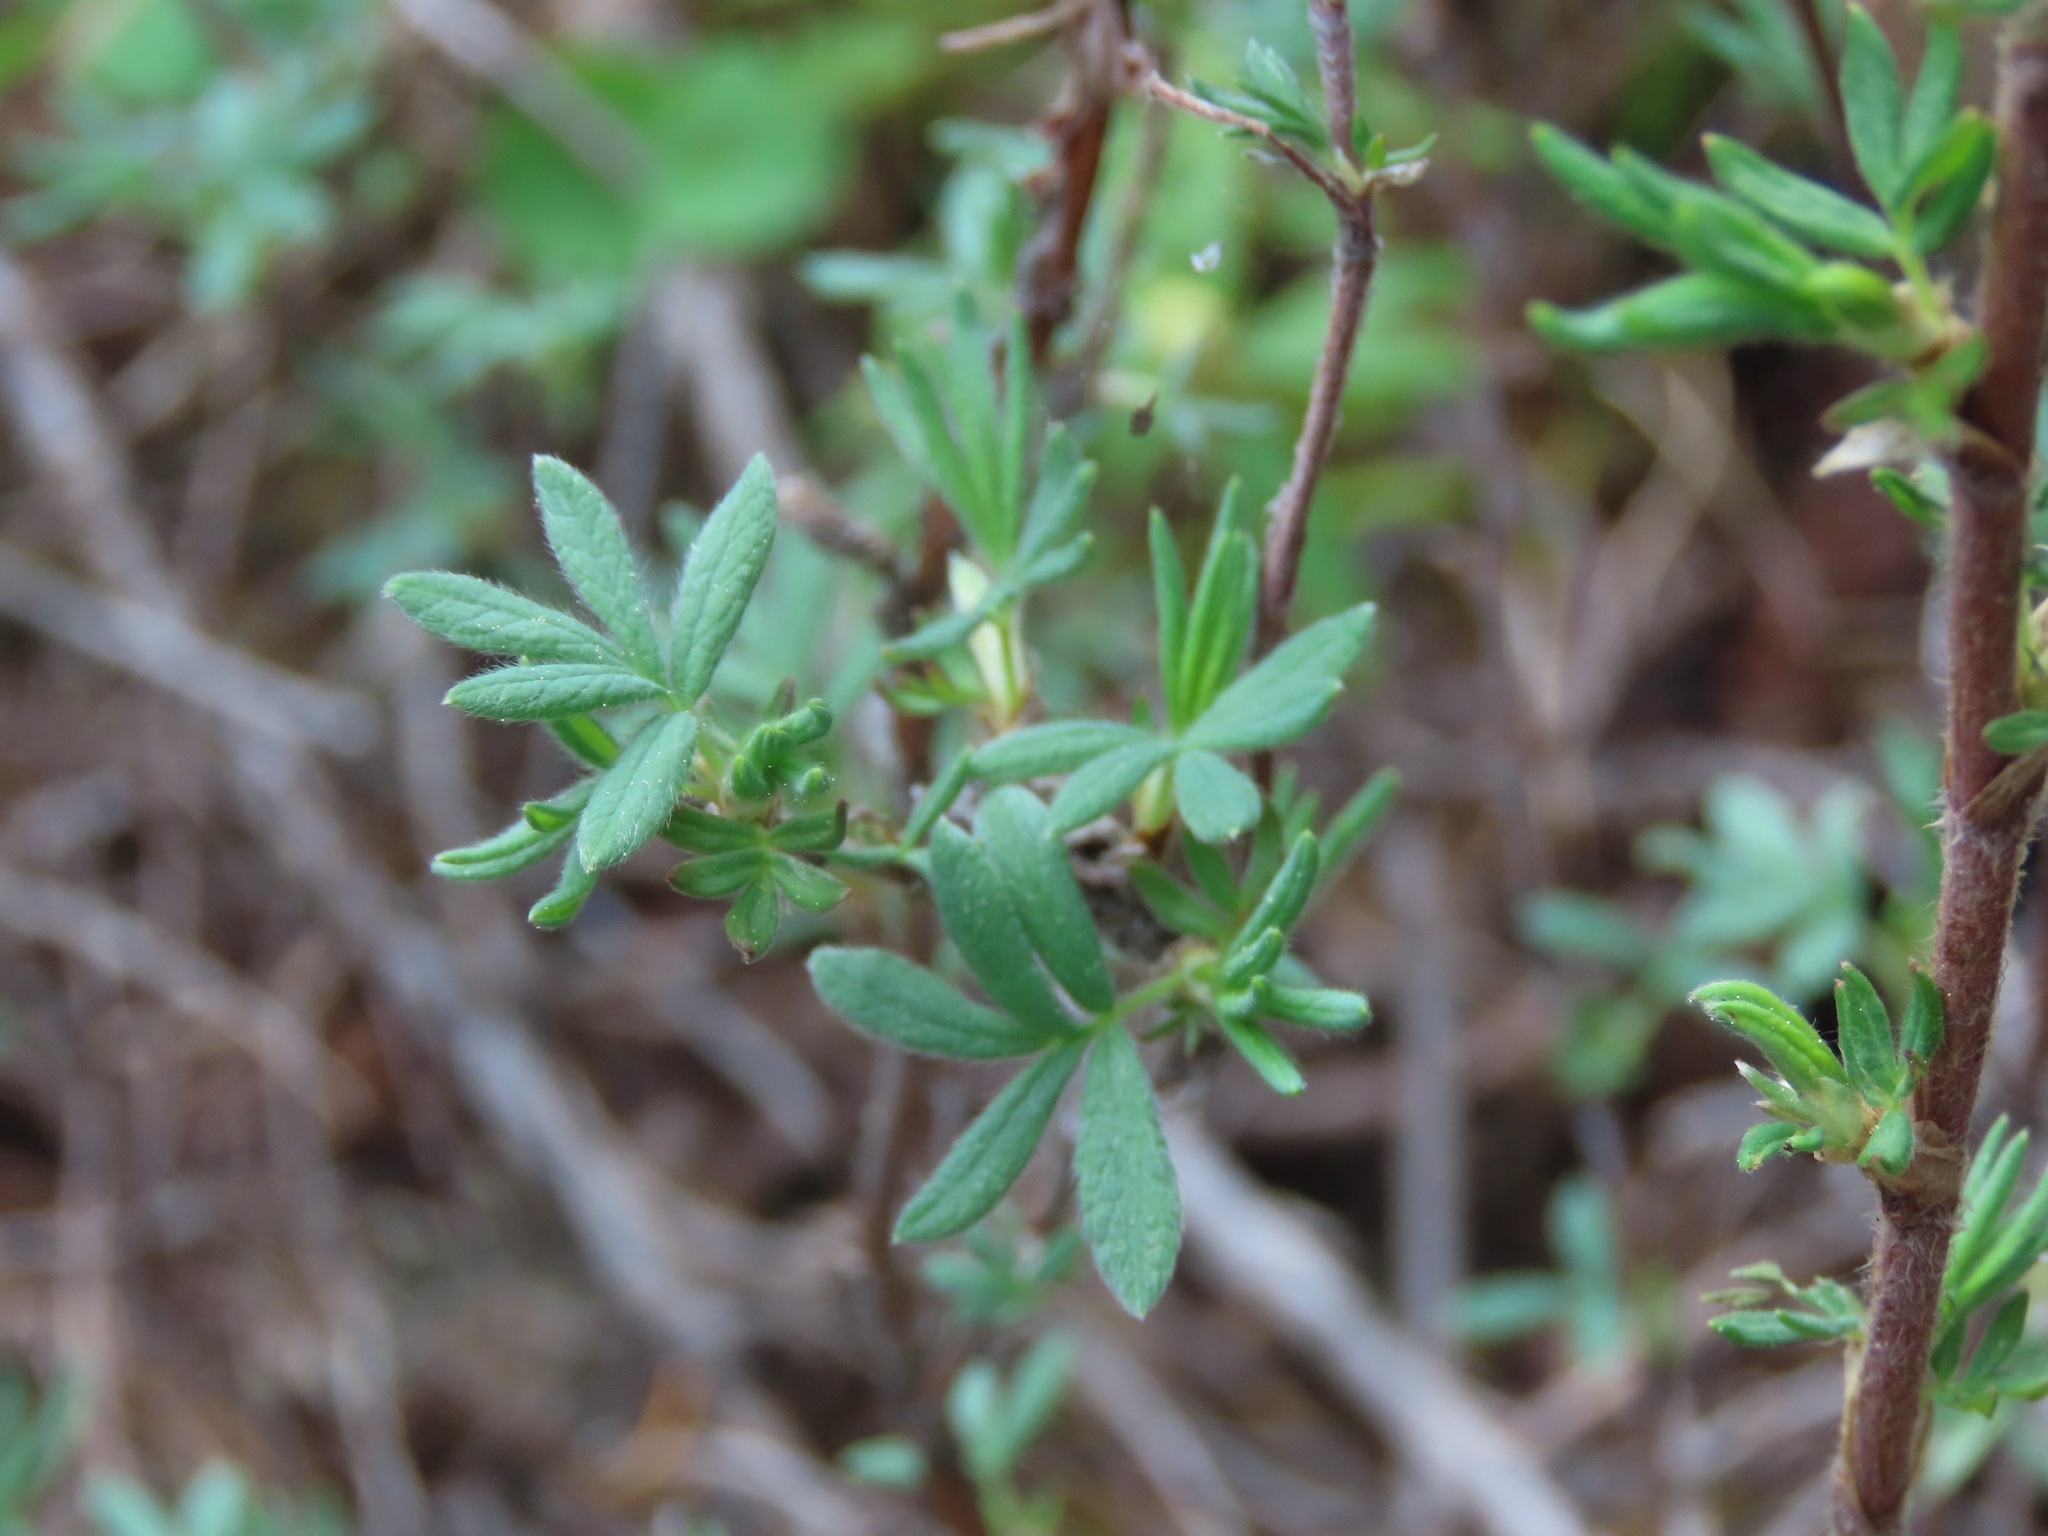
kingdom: Plantae
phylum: Tracheophyta
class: Magnoliopsida
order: Rosales
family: Rosaceae
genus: Dasiphora
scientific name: Dasiphora fruticosa
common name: Shrubby cinquefoil
